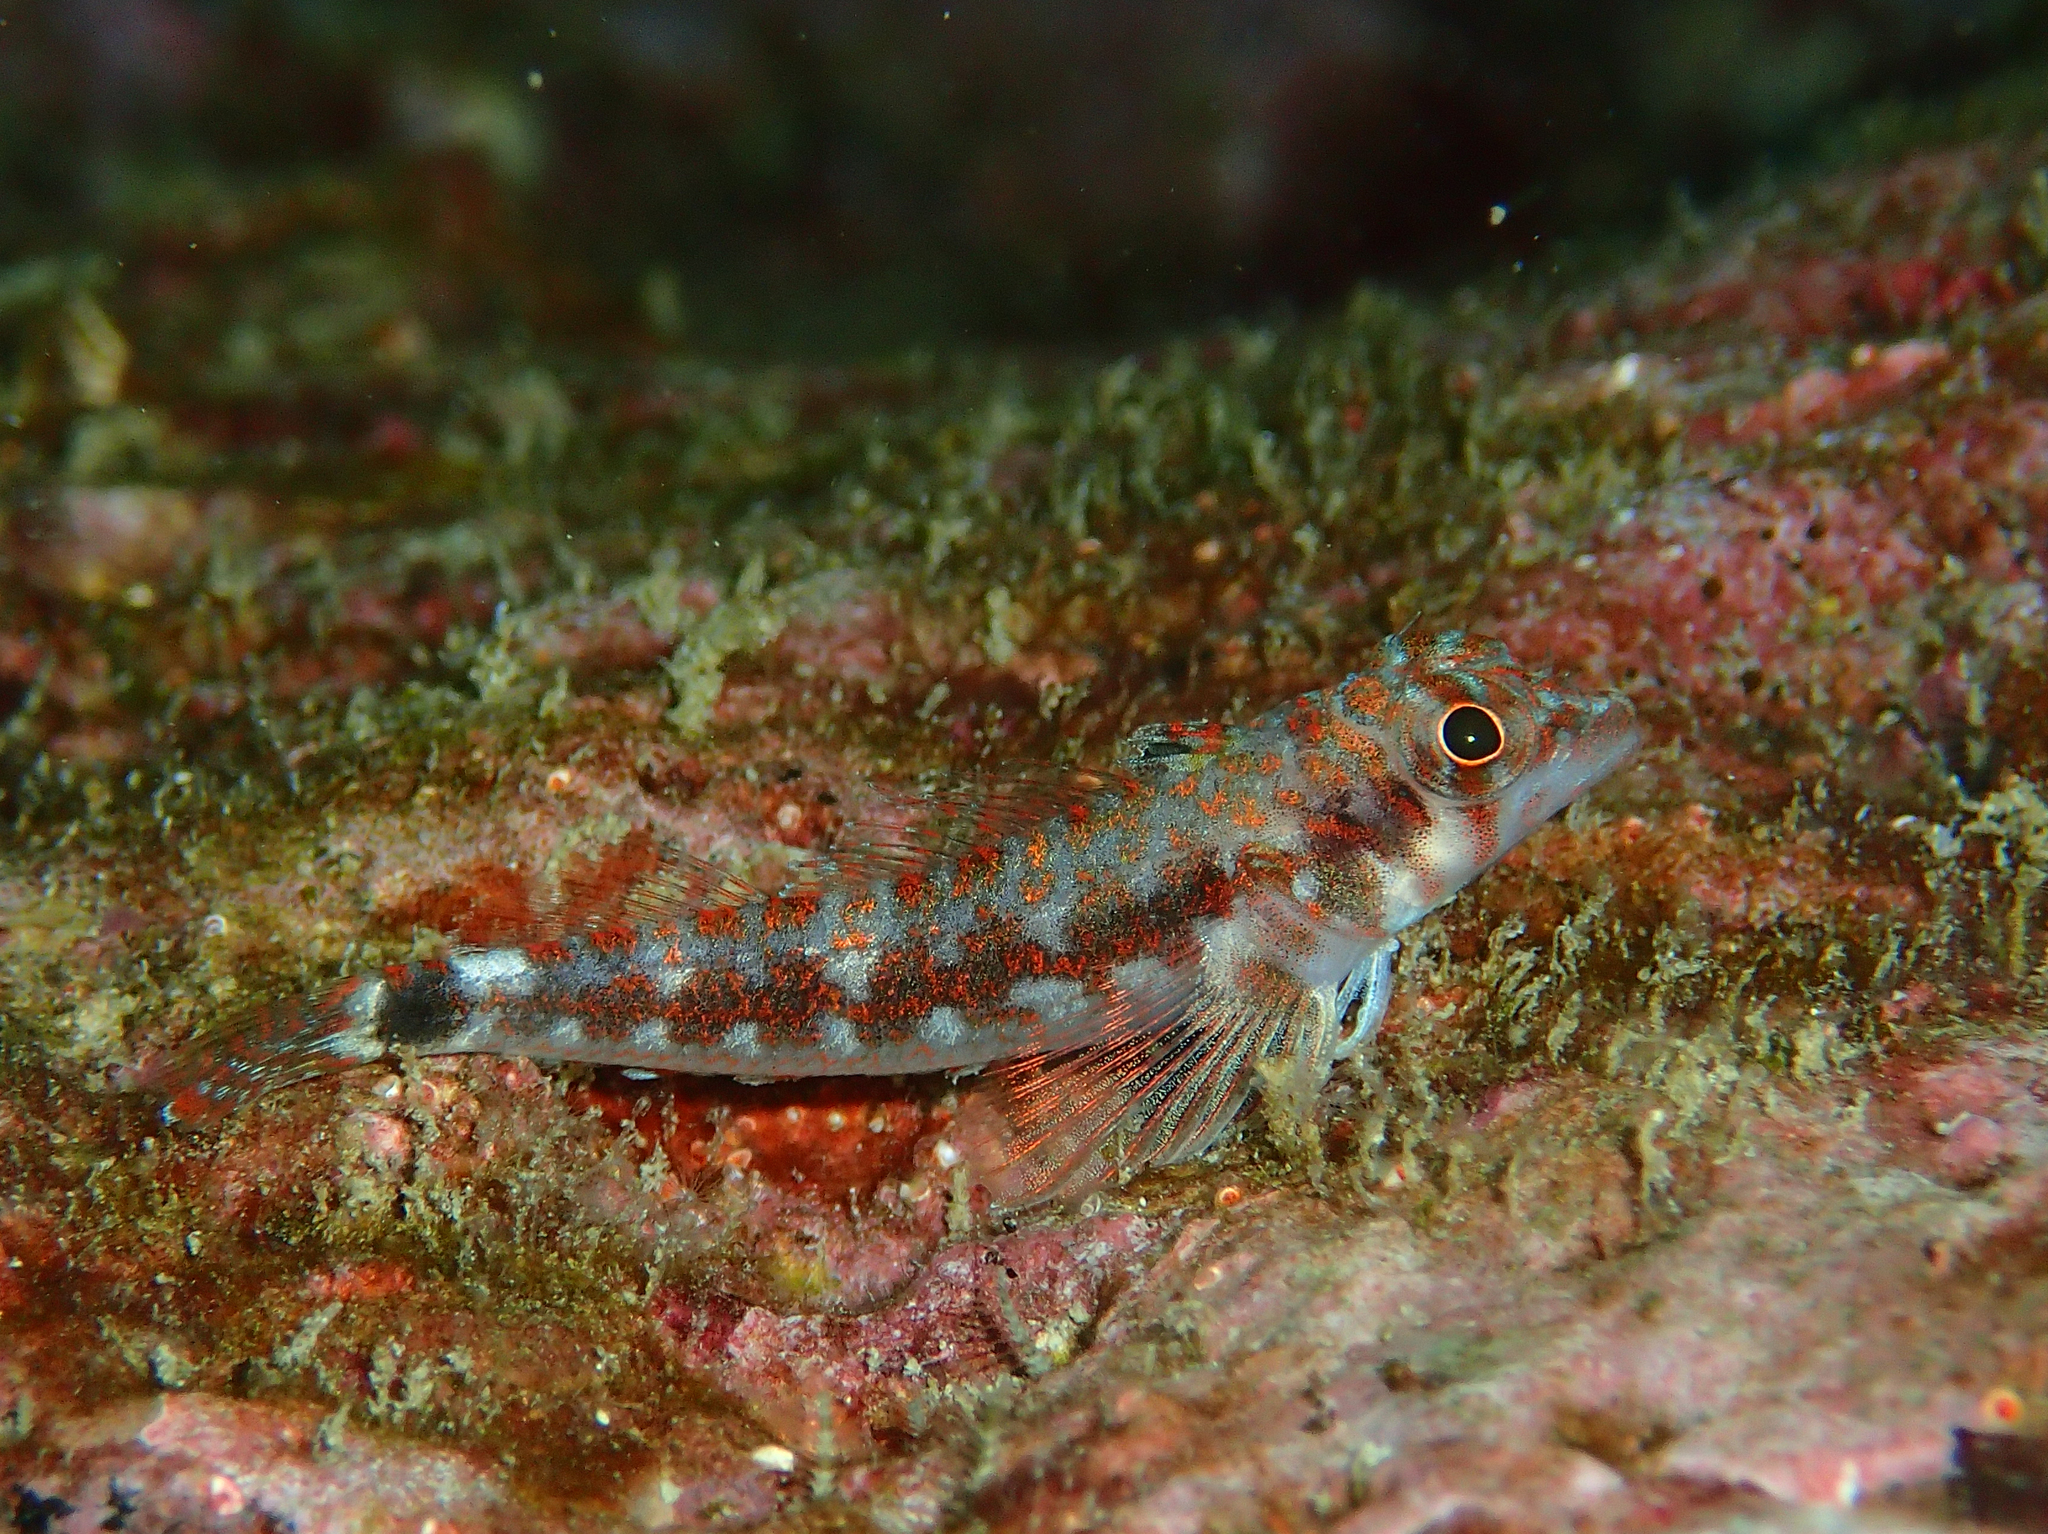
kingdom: Animalia
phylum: Chordata
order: Perciformes
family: Tripterygiidae
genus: Lepidonectes
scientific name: Lepidonectes corallicola
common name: Galapagos triplefin blenny
